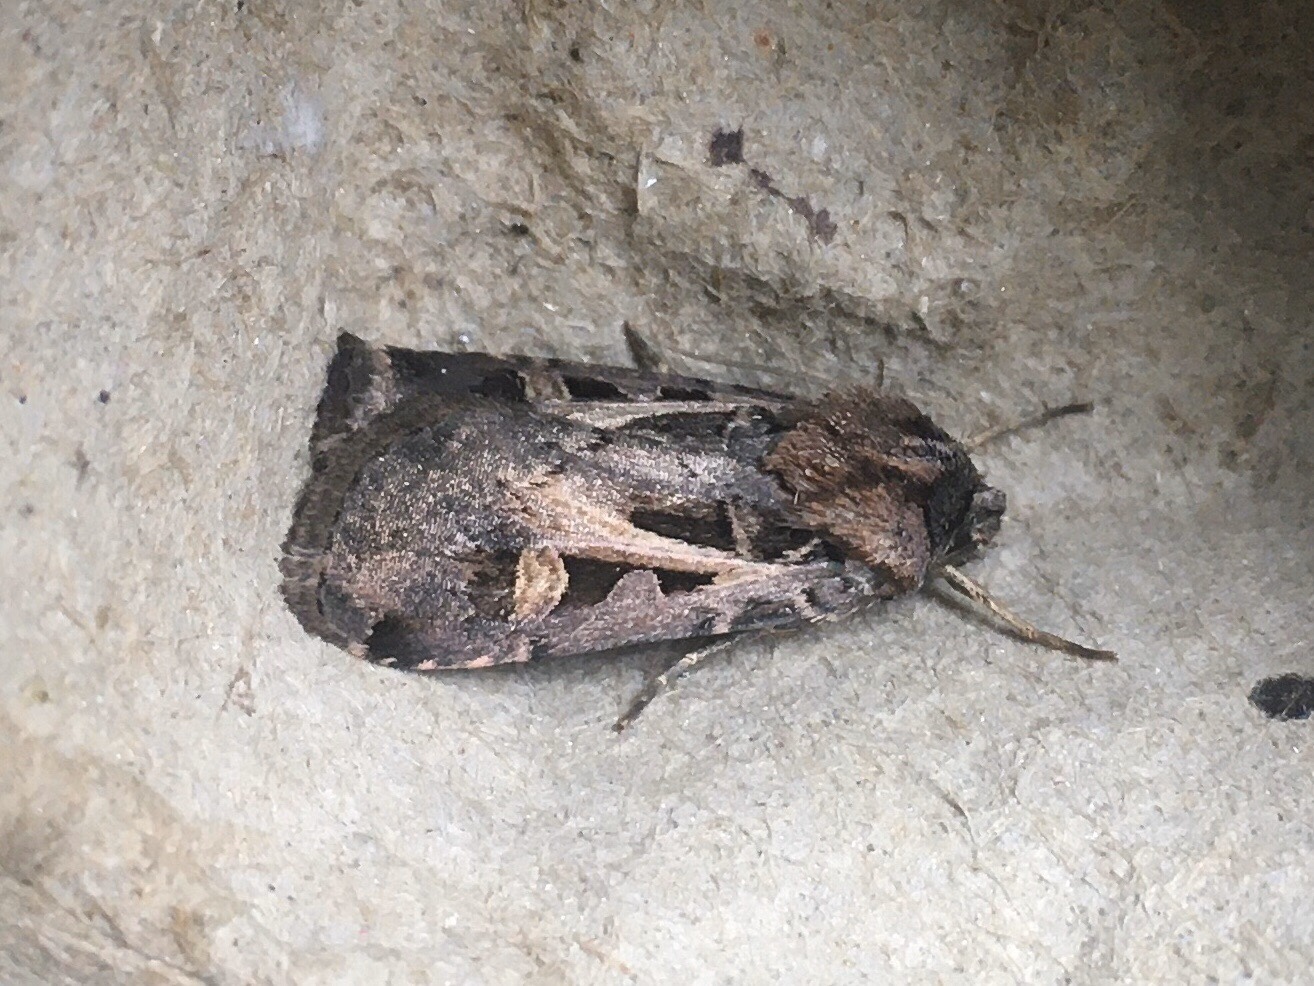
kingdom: Animalia
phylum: Arthropoda
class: Insecta
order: Lepidoptera
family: Noctuidae
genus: Feltia
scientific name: Feltia herilis
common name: Master's dart
